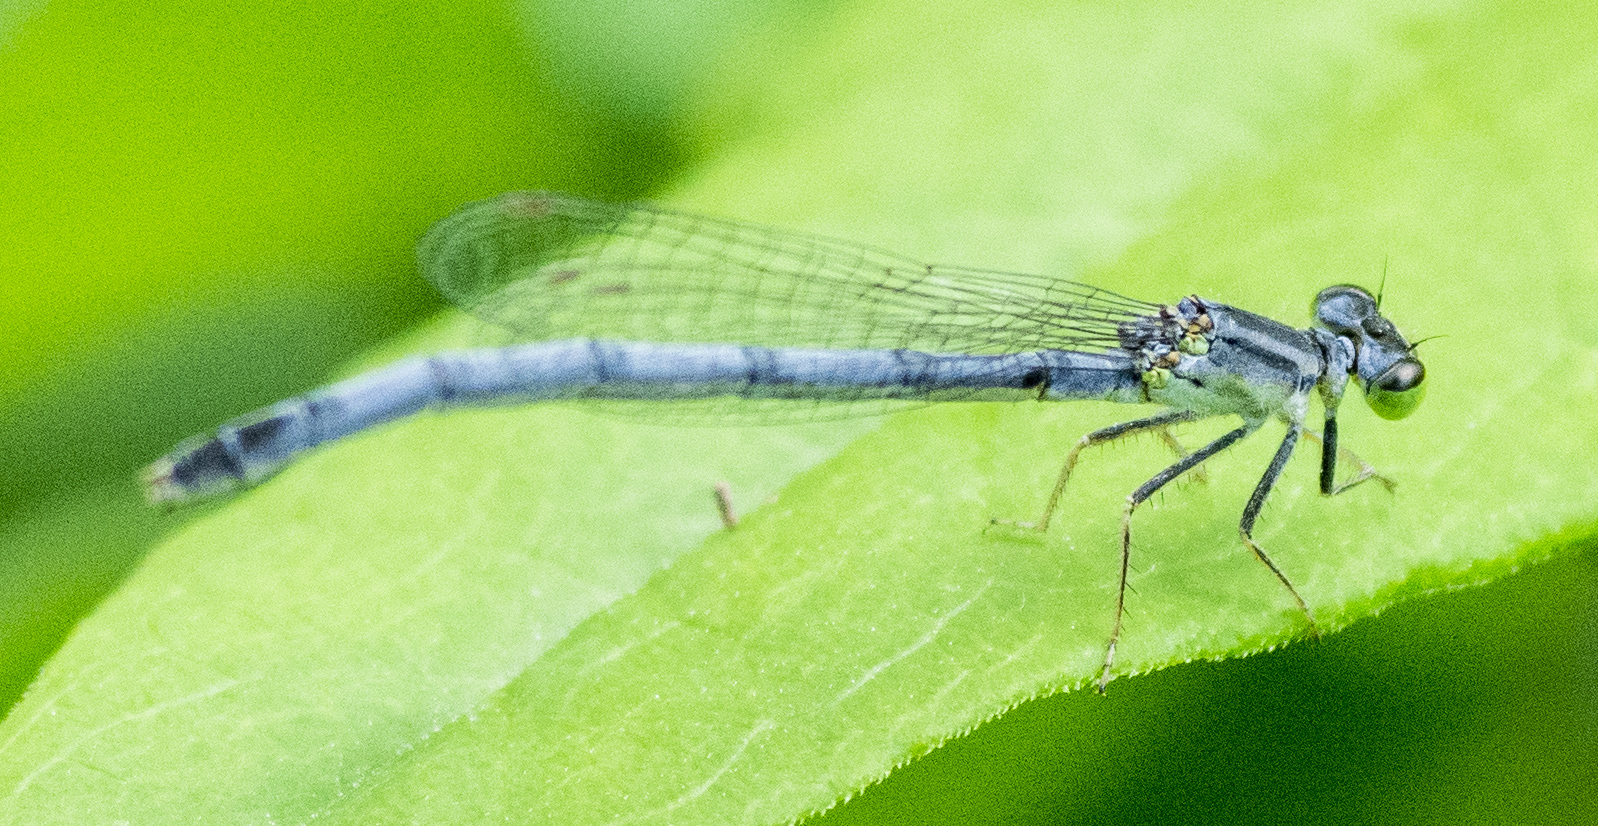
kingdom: Animalia
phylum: Arthropoda
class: Insecta
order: Odonata
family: Coenagrionidae
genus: Ischnura
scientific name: Ischnura verticalis
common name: Eastern forktail
